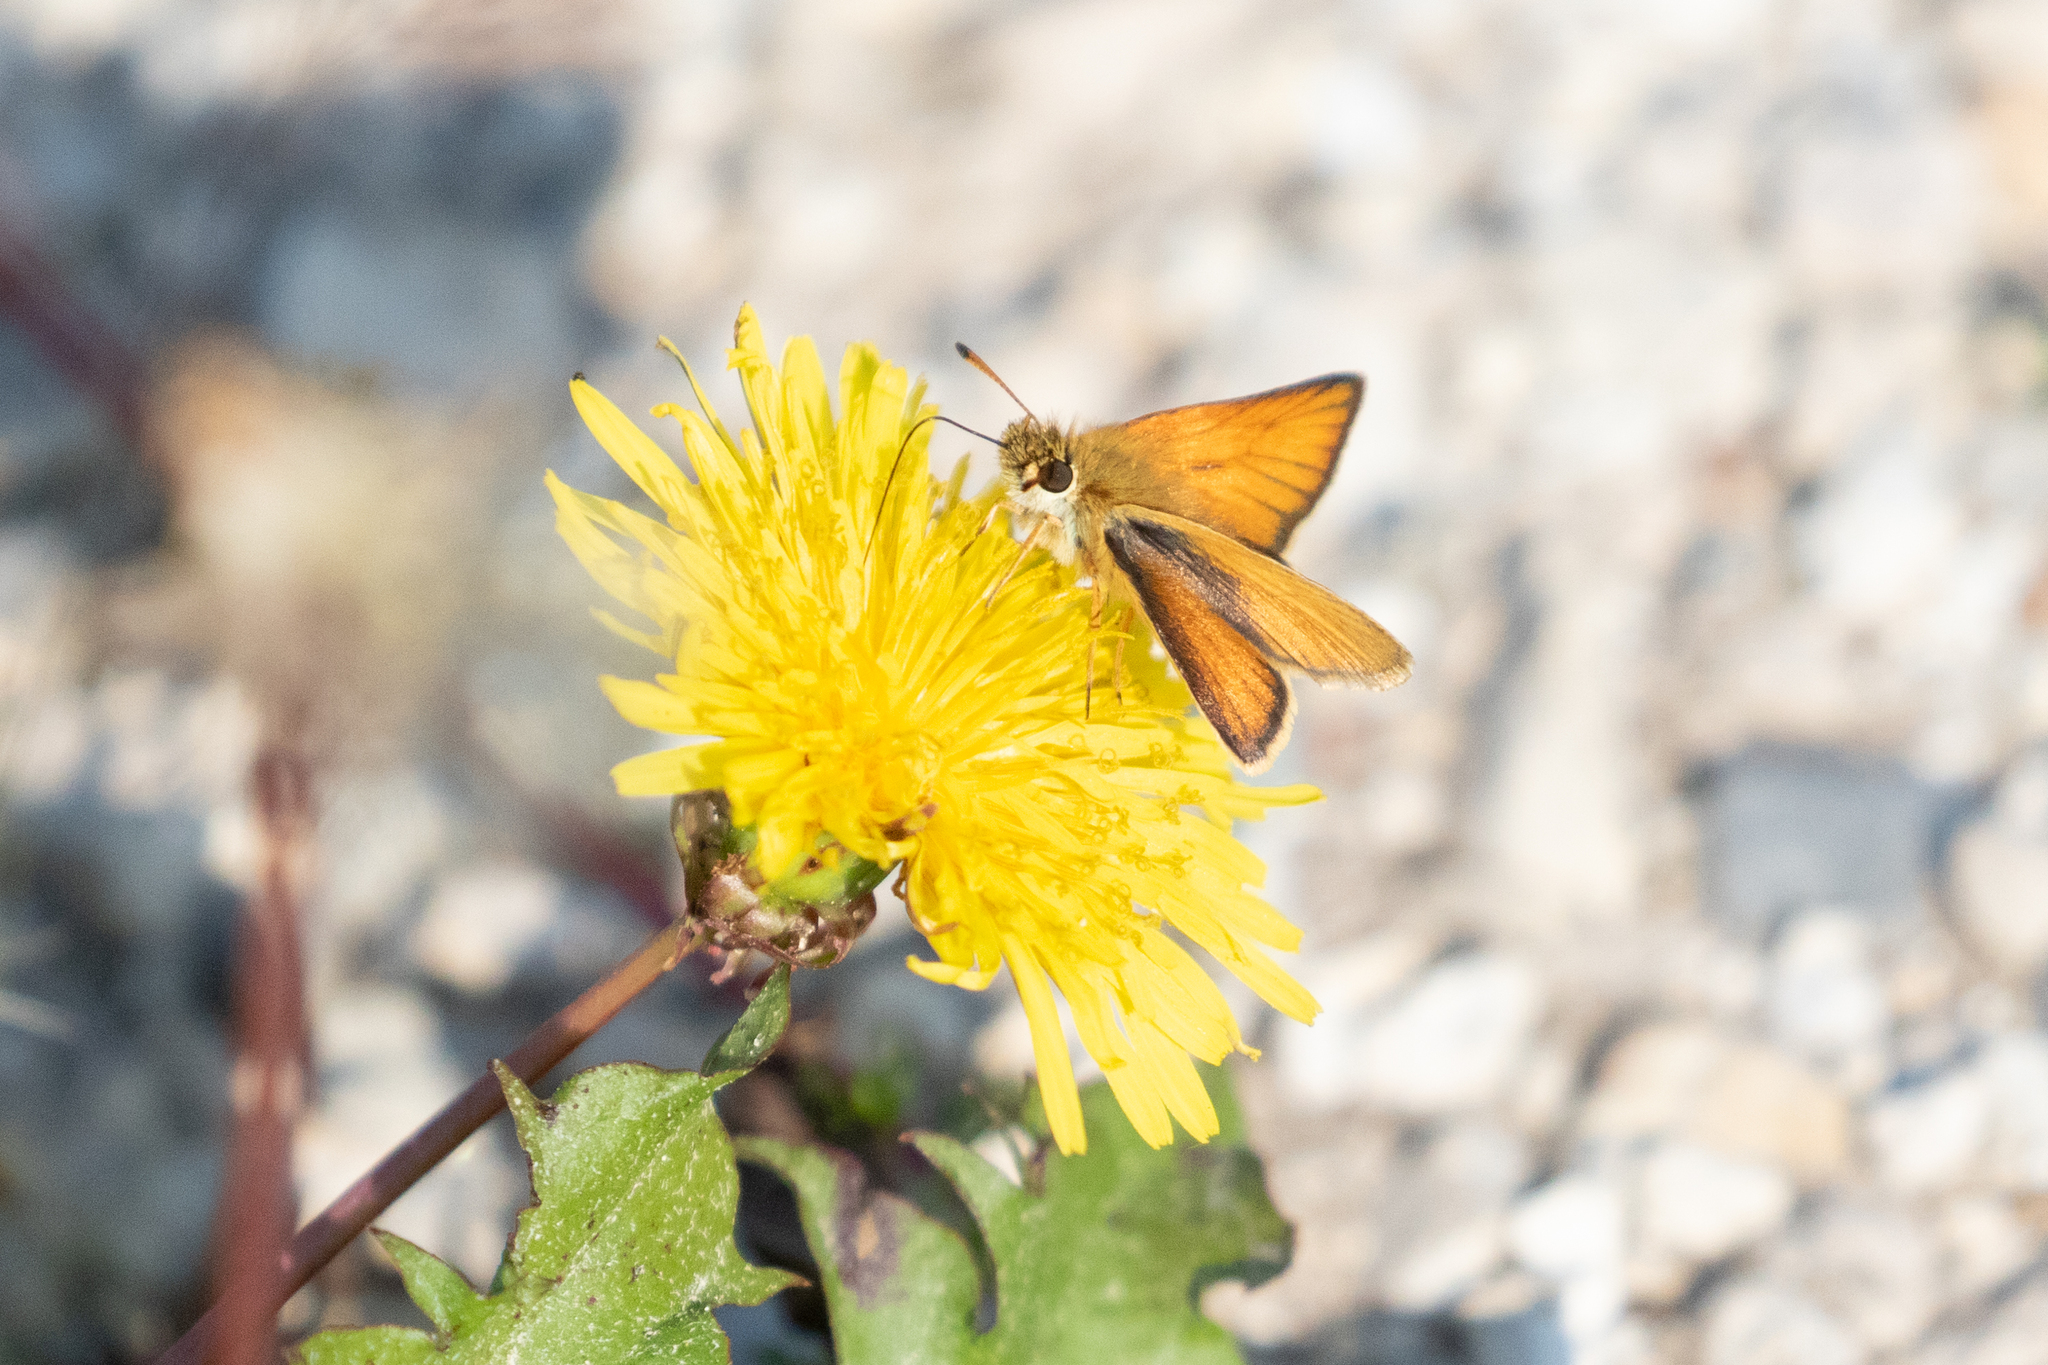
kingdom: Animalia
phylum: Arthropoda
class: Insecta
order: Lepidoptera
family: Hesperiidae
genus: Thymelicus
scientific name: Thymelicus lineola
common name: Essex skipper
